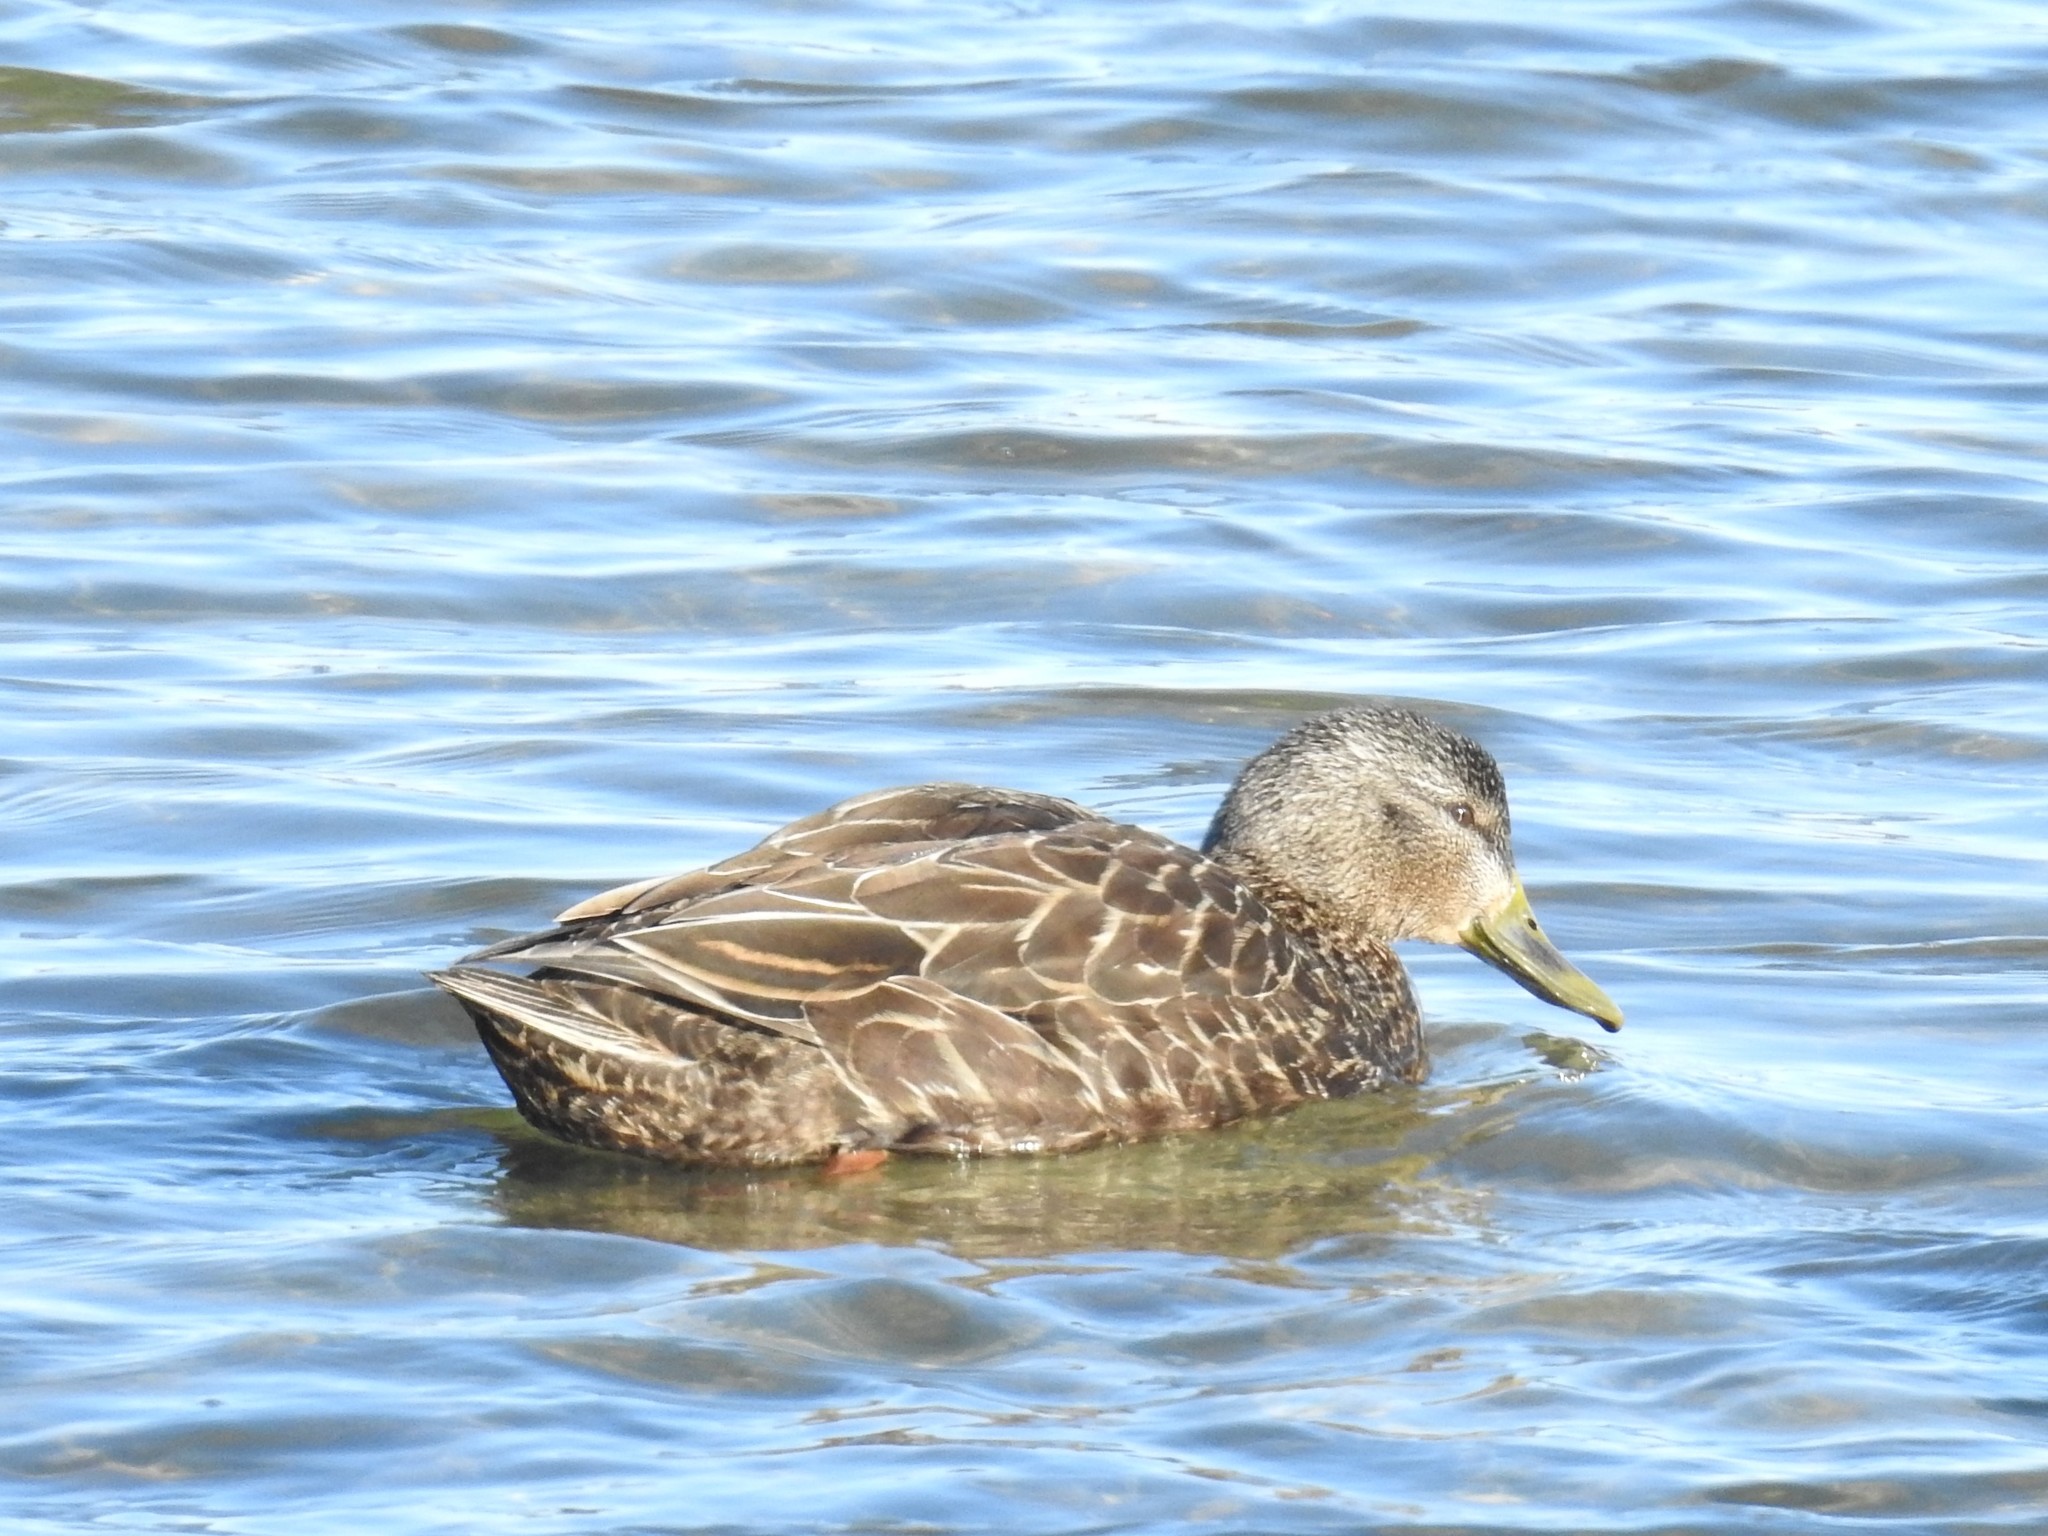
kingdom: Animalia
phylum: Chordata
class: Aves
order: Anseriformes
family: Anatidae
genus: Anas
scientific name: Anas platyrhynchos
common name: Mallard
